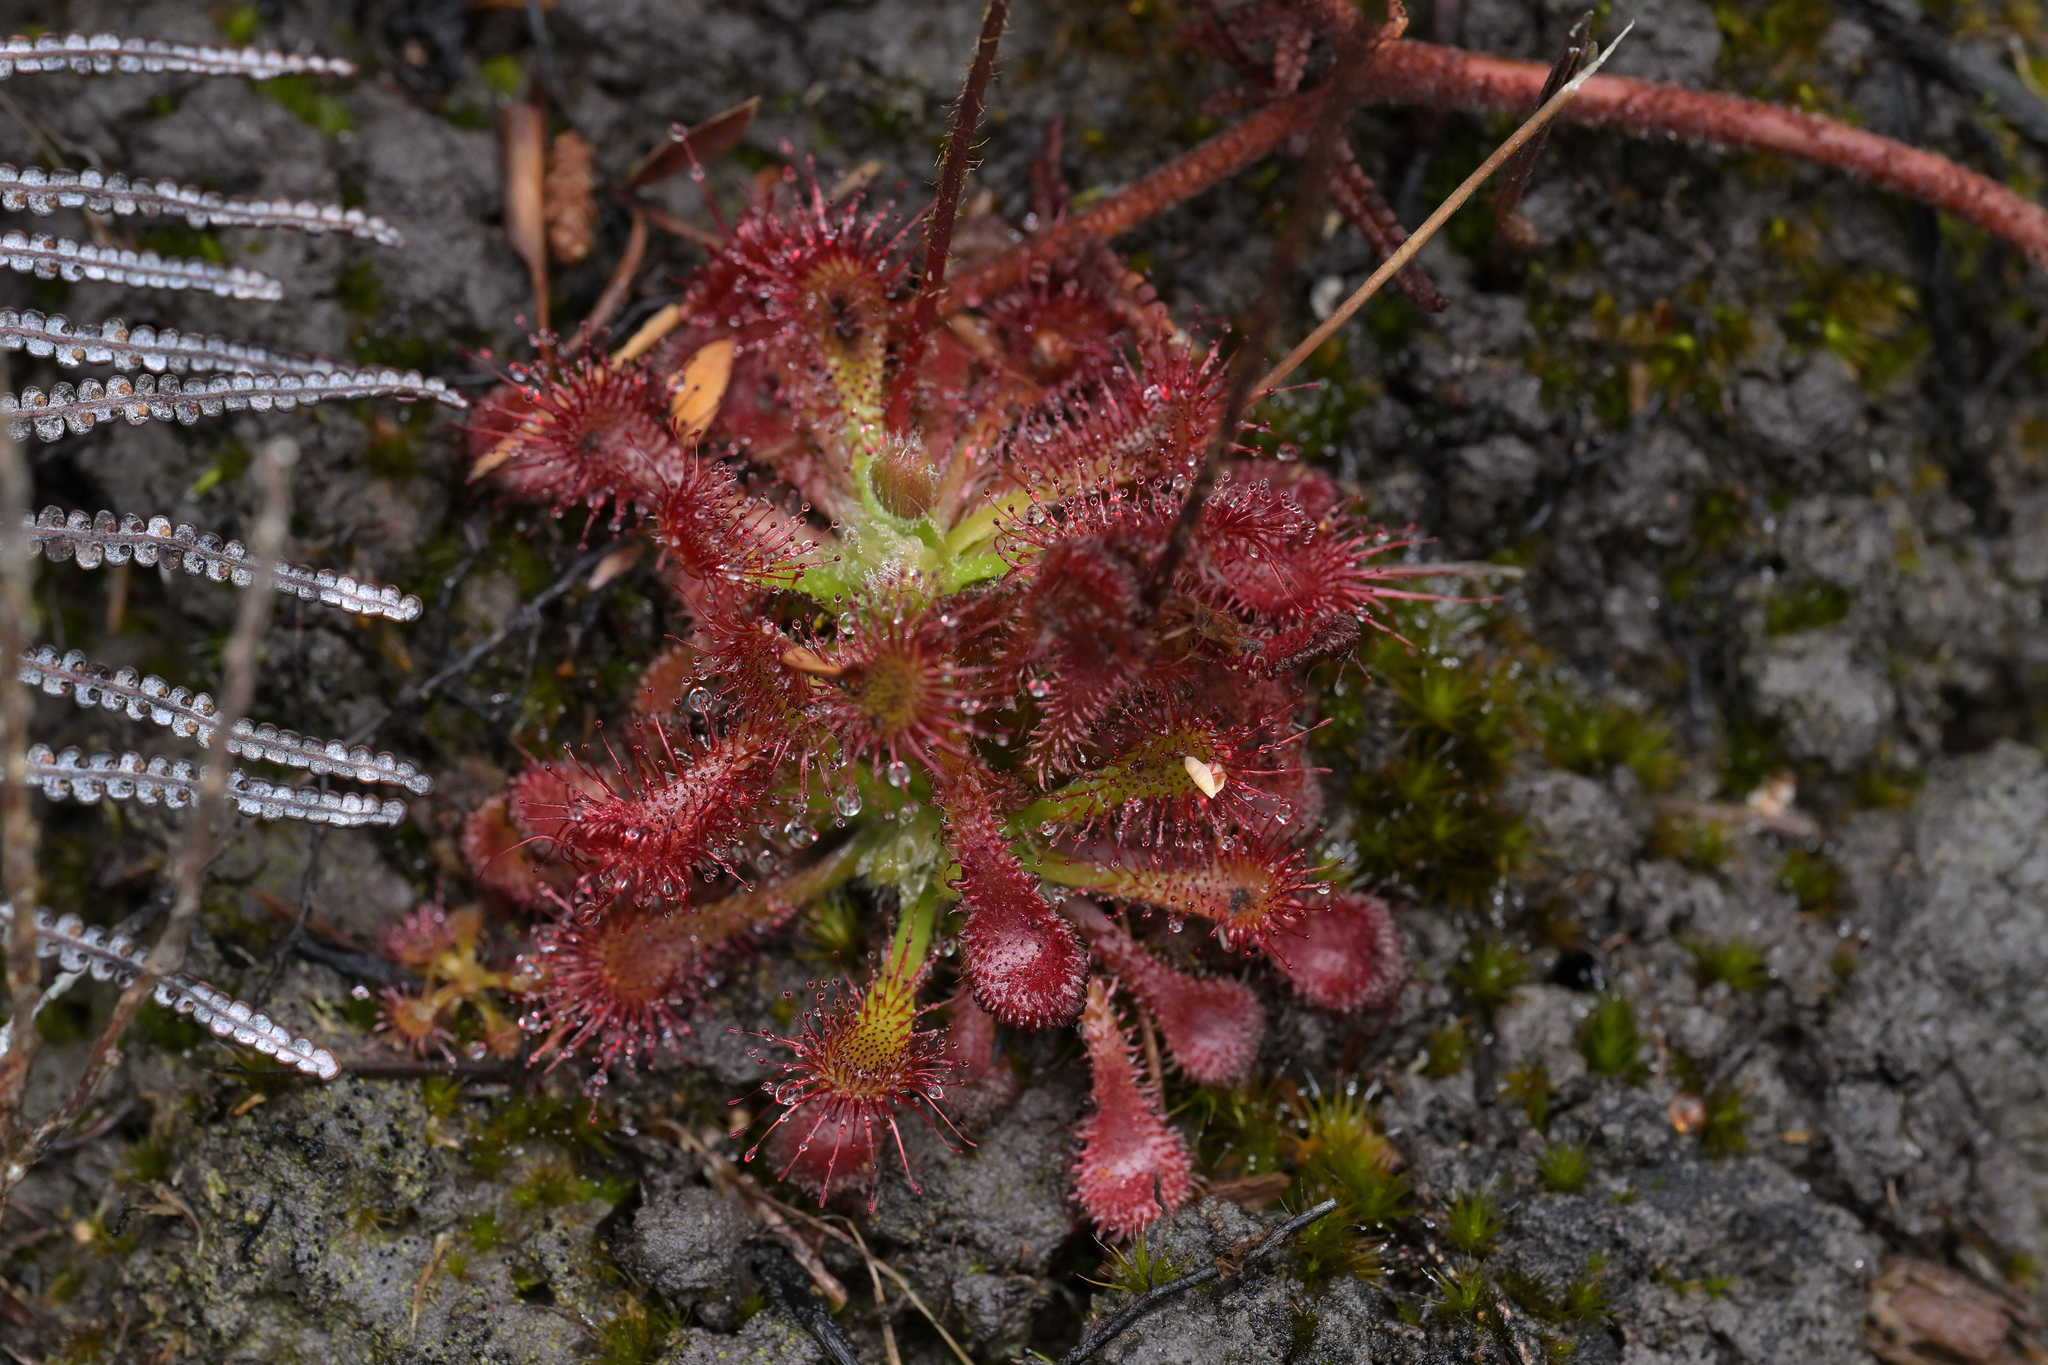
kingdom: Plantae
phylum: Tracheophyta
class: Magnoliopsida
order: Caryophyllales
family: Droseraceae
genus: Drosera
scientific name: Drosera spatulata
